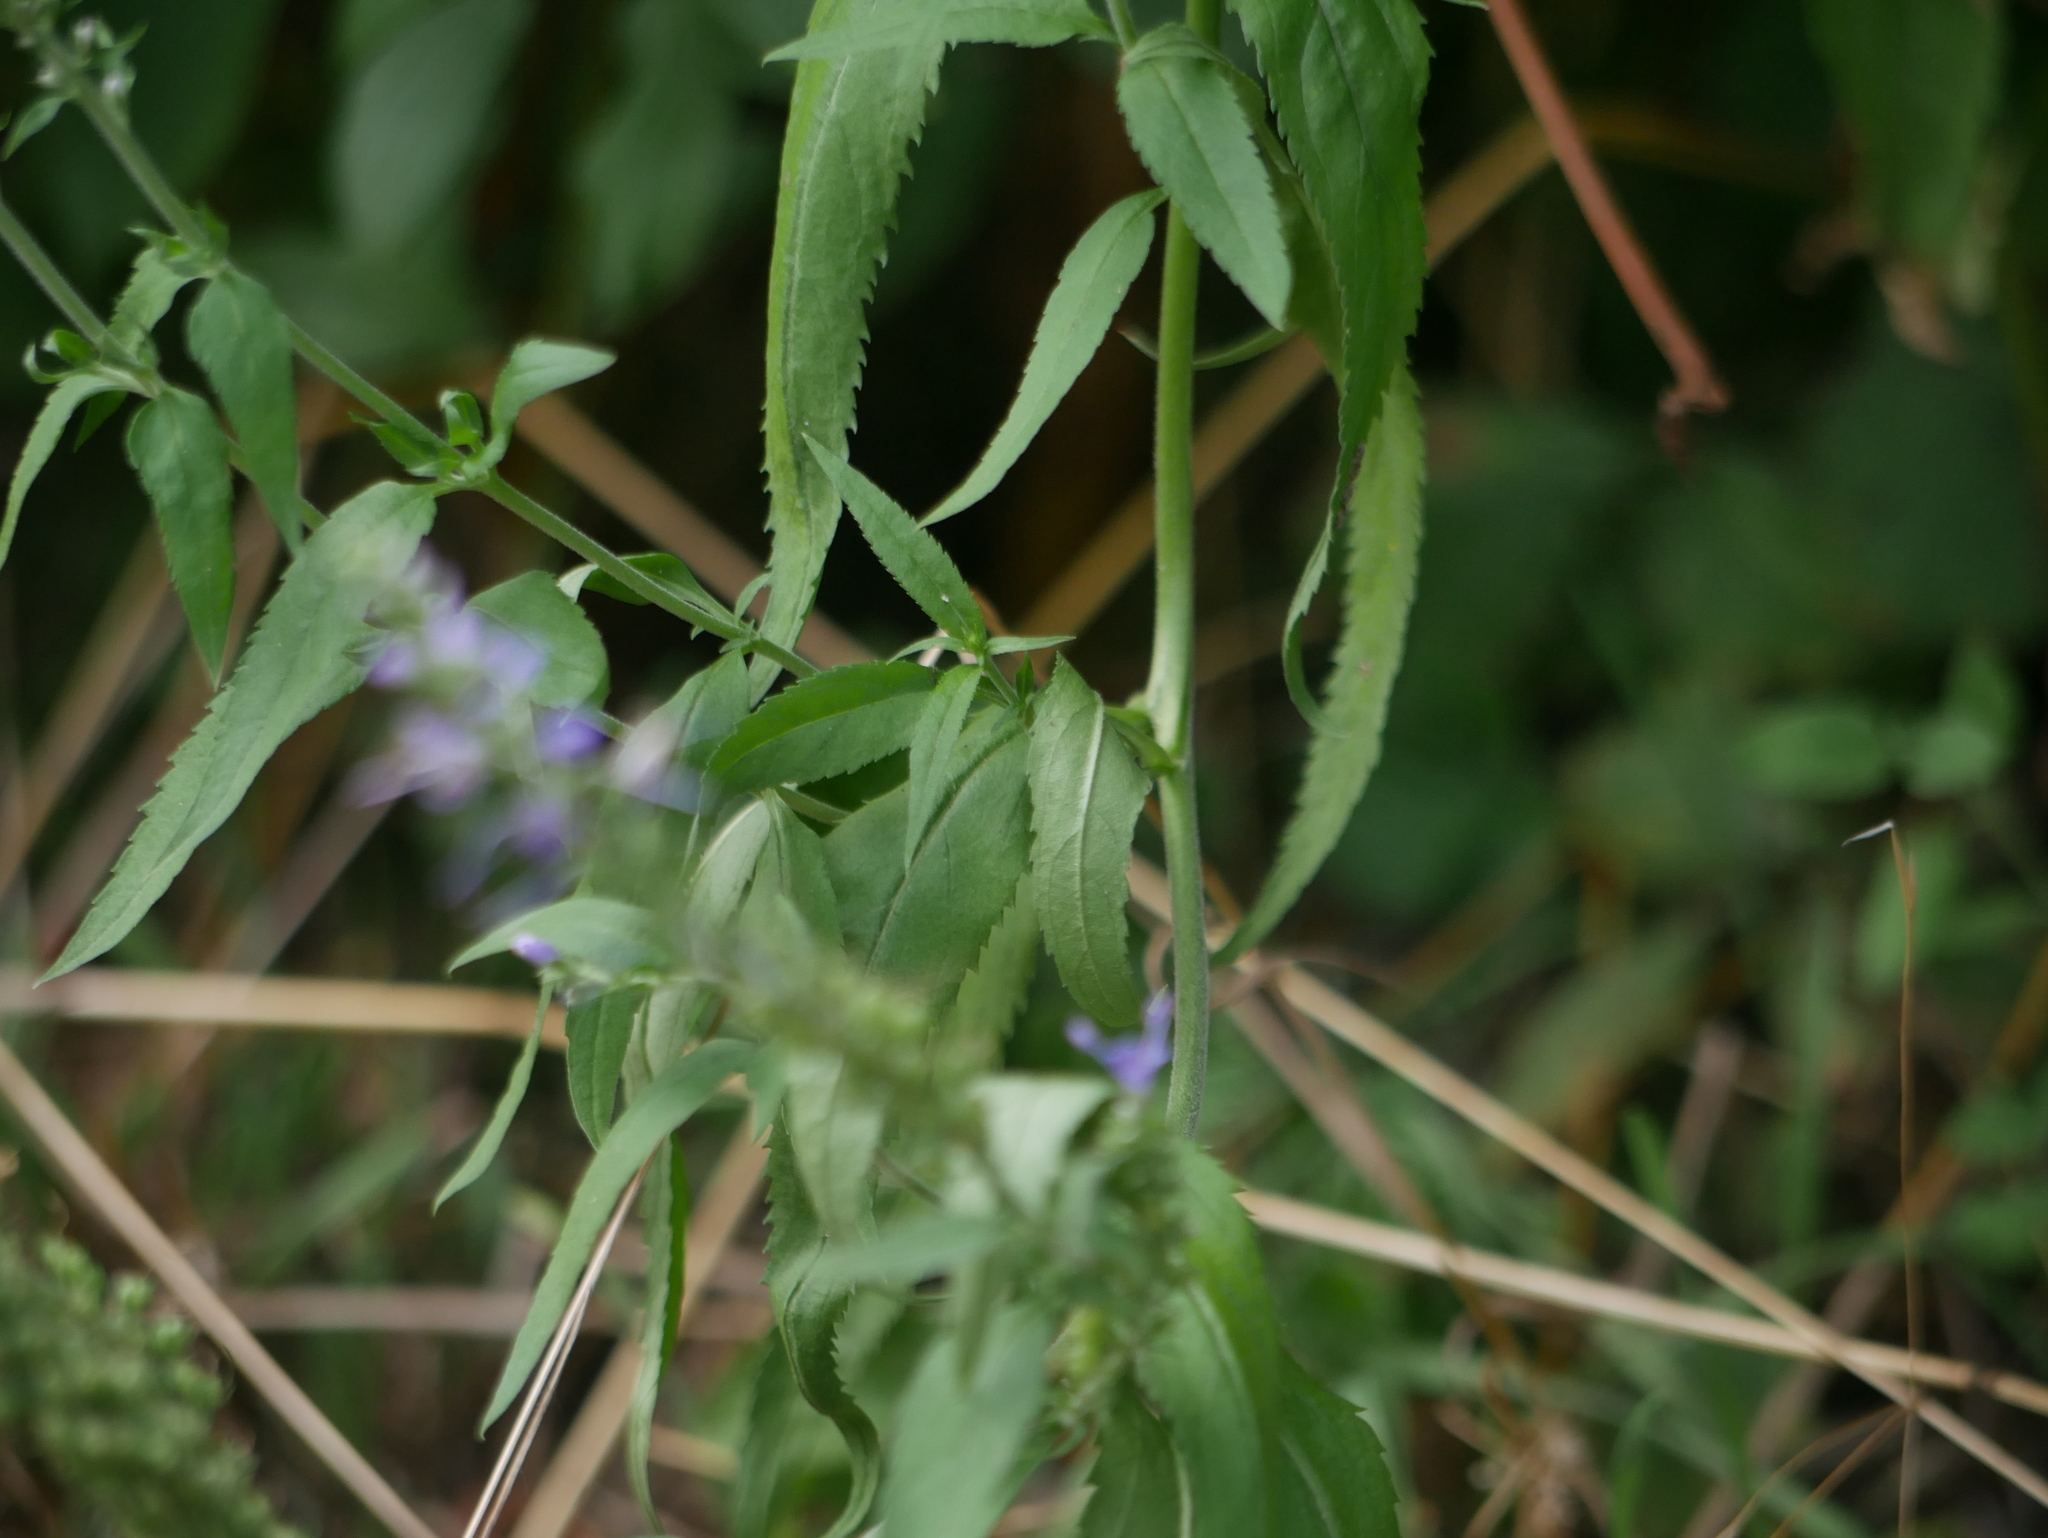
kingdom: Plantae
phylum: Tracheophyta
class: Magnoliopsida
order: Lamiales
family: Plantaginaceae
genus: Veronica
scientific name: Veronica longifolia
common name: Garden speedwell
